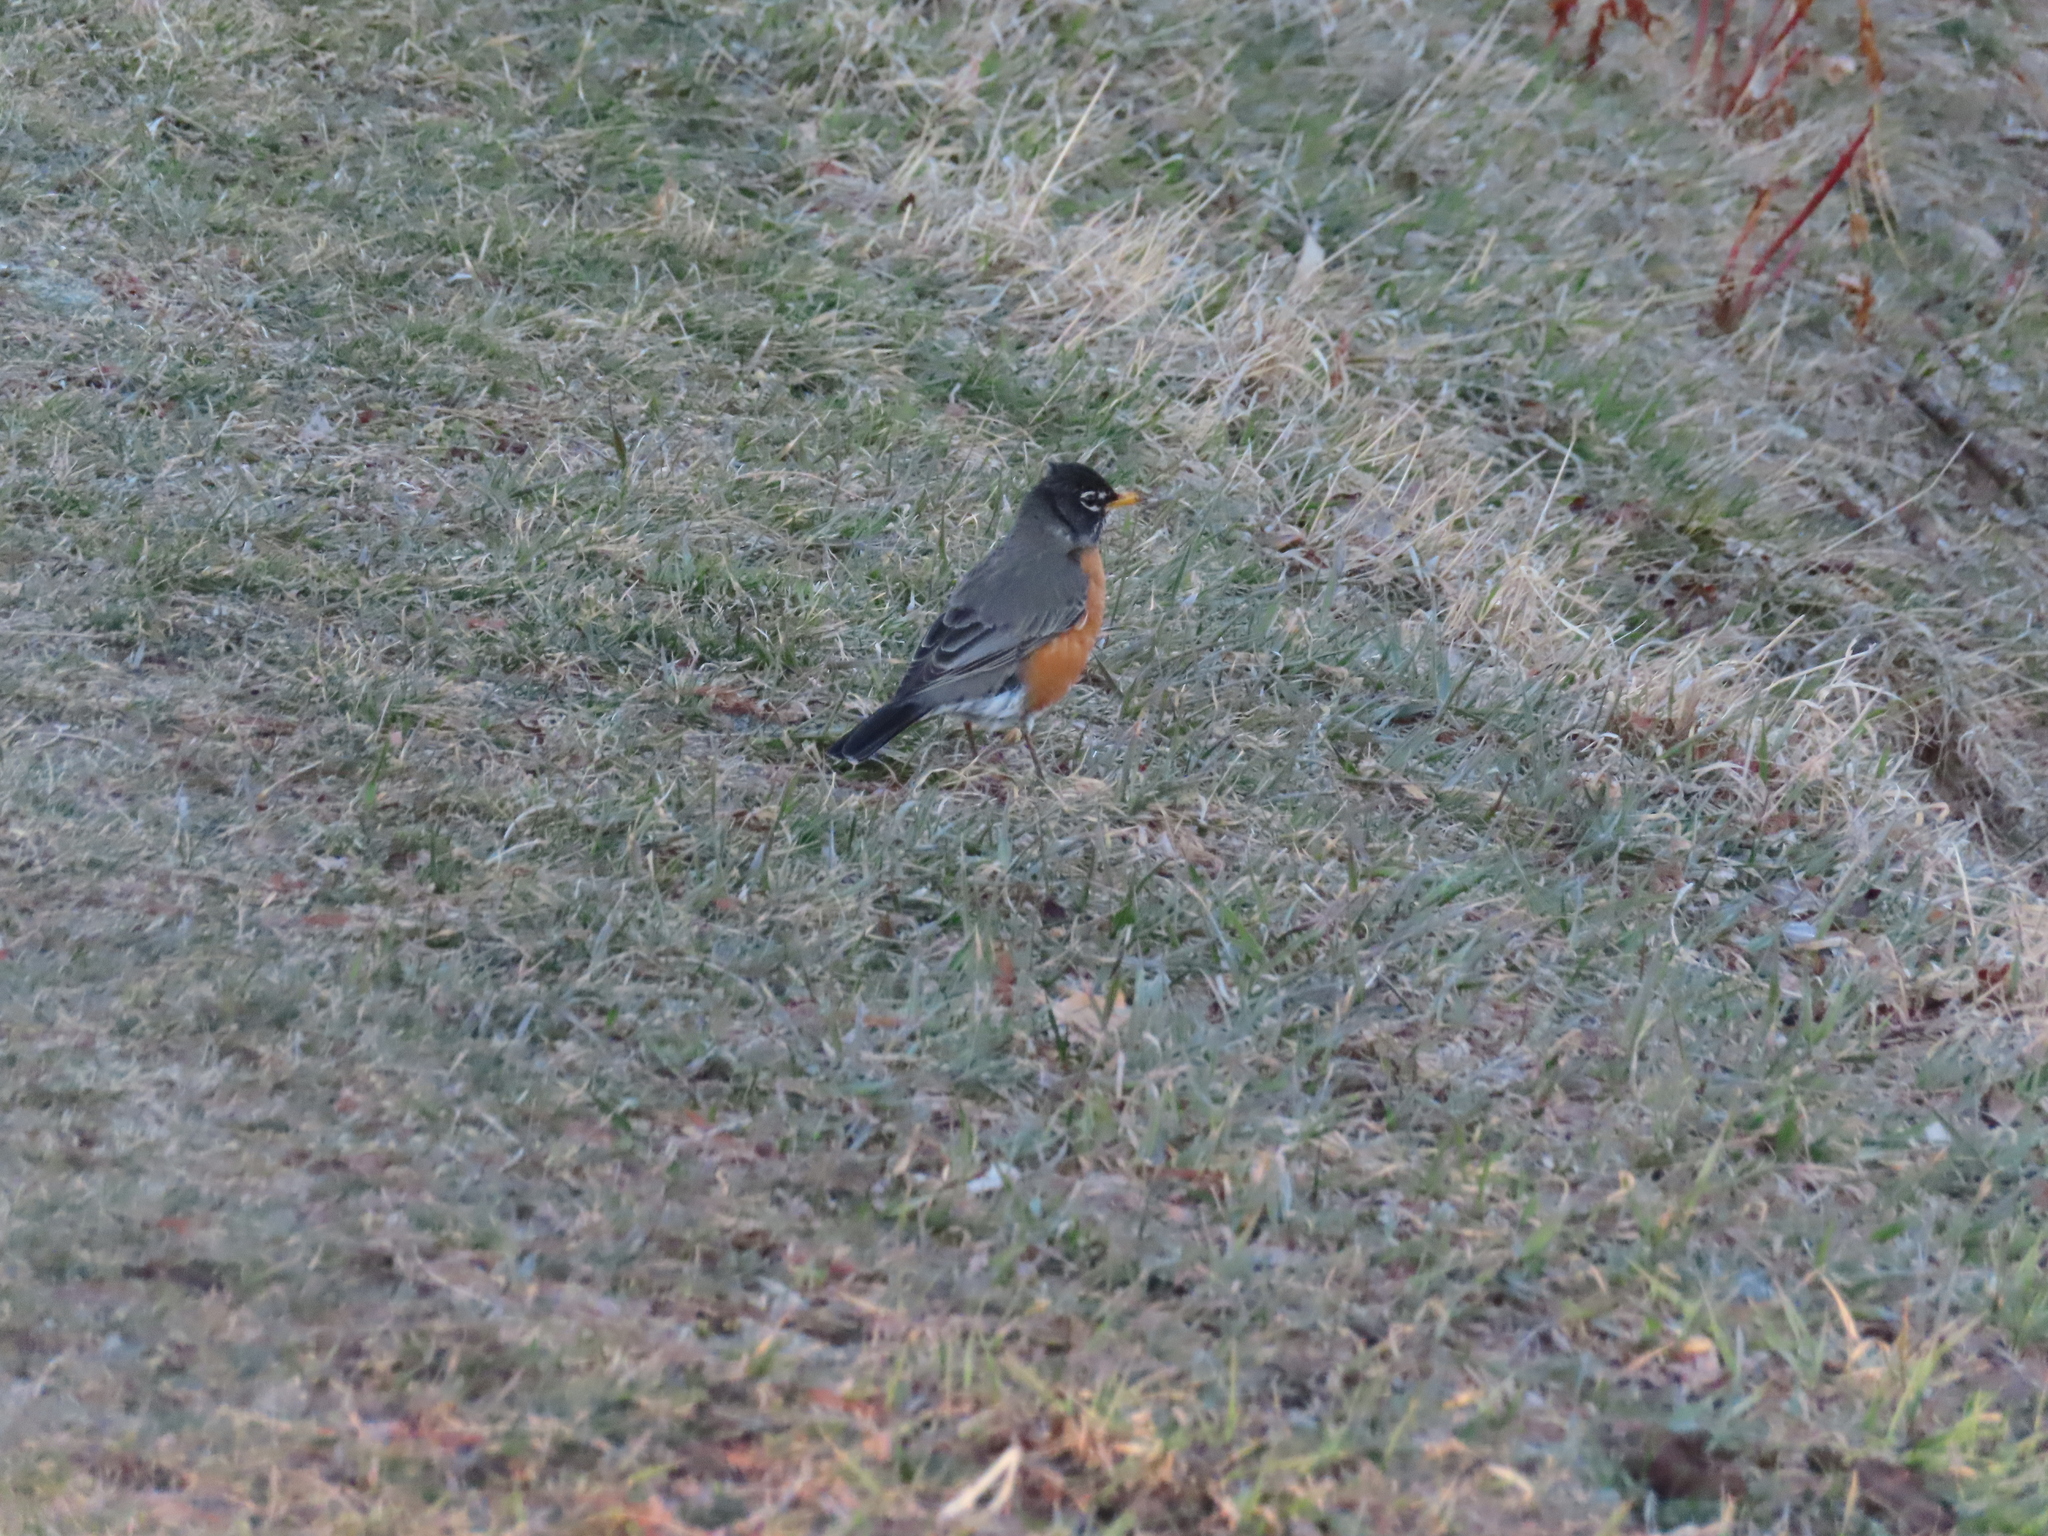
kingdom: Animalia
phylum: Chordata
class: Aves
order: Passeriformes
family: Turdidae
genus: Turdus
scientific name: Turdus migratorius
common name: American robin
